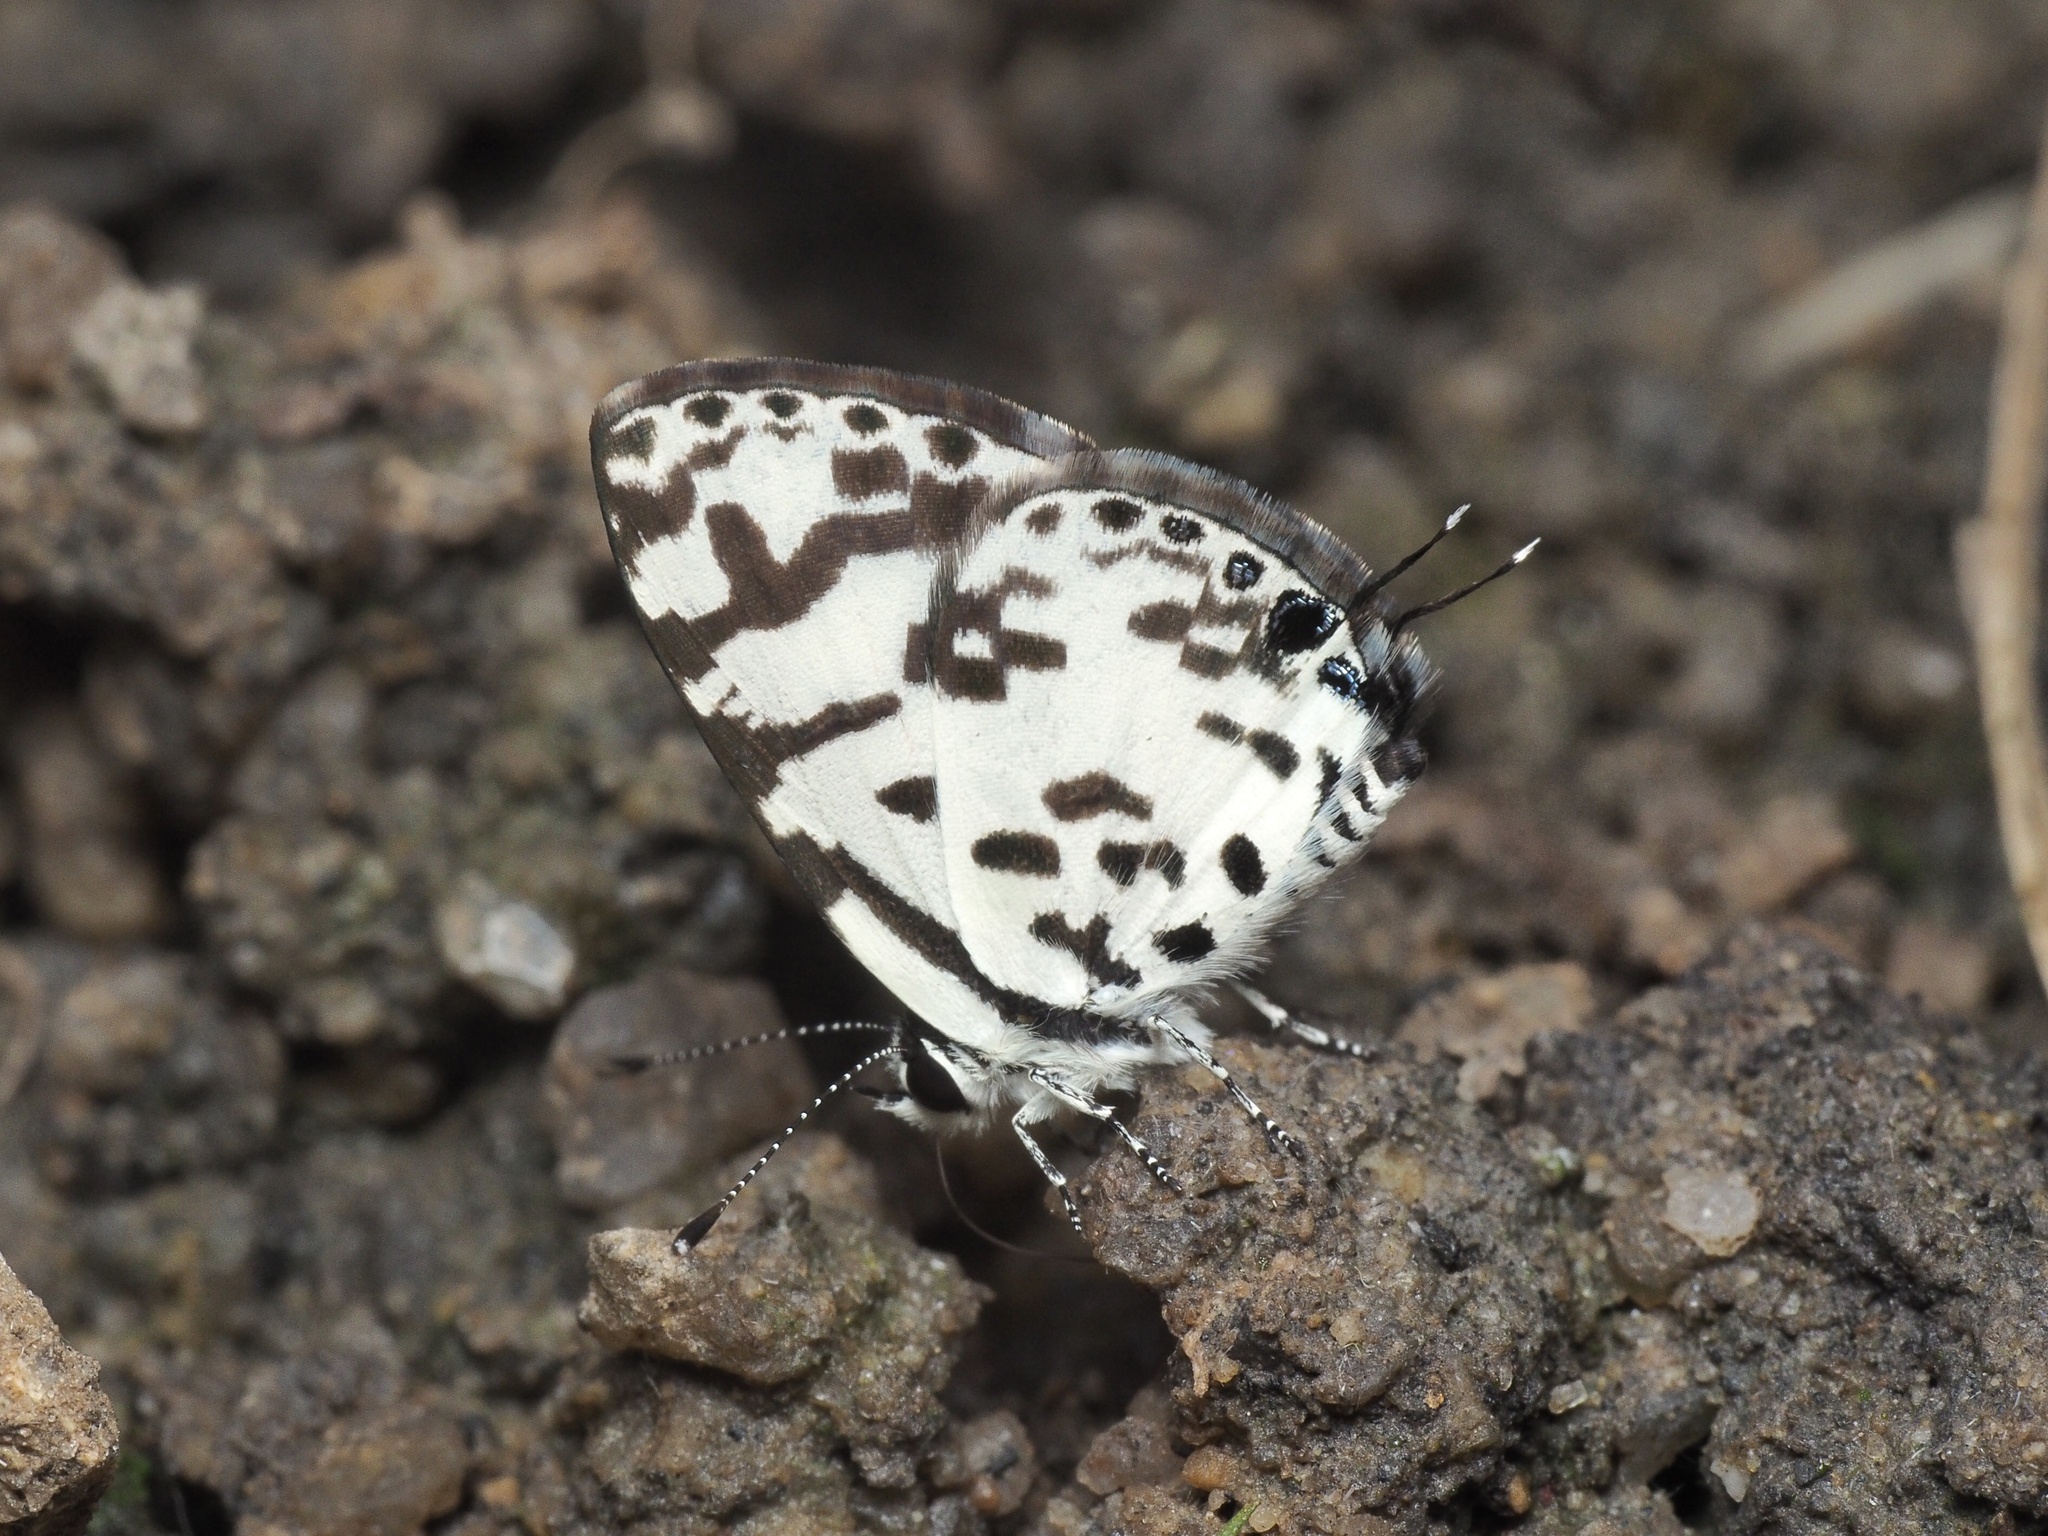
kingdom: Animalia
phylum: Arthropoda
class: Insecta
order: Lepidoptera
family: Lycaenidae
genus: Castalius
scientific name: Castalius melaena
